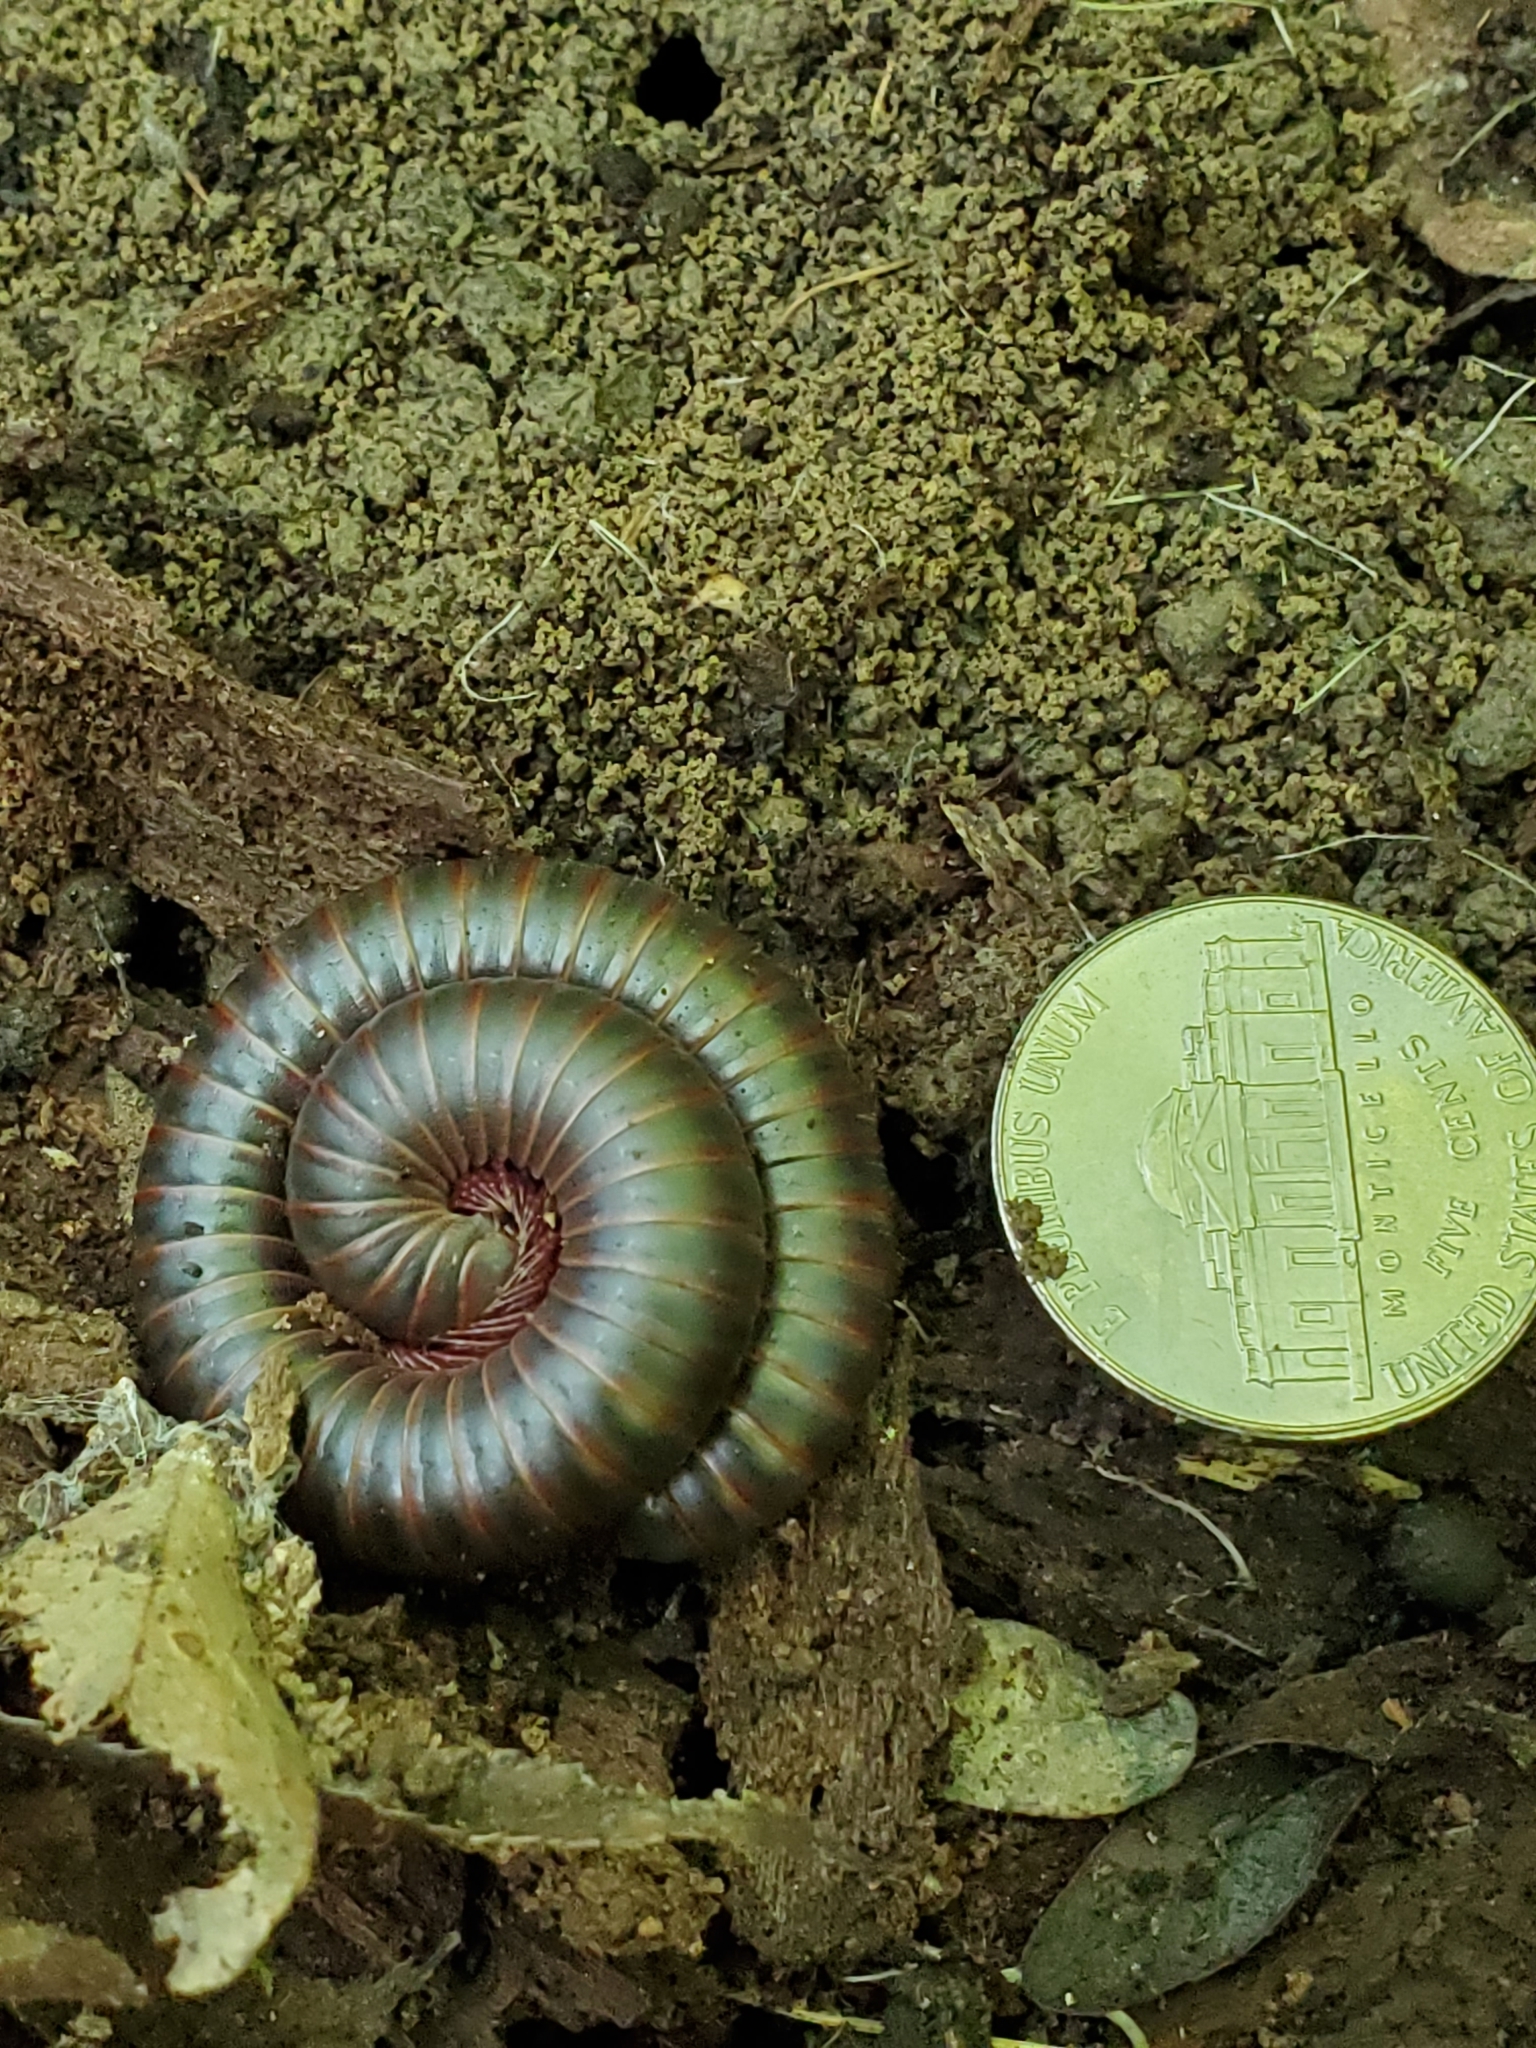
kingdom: Animalia
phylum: Arthropoda
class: Diplopoda
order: Spirobolida
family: Spirobolidae
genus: Narceus
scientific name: Narceus
